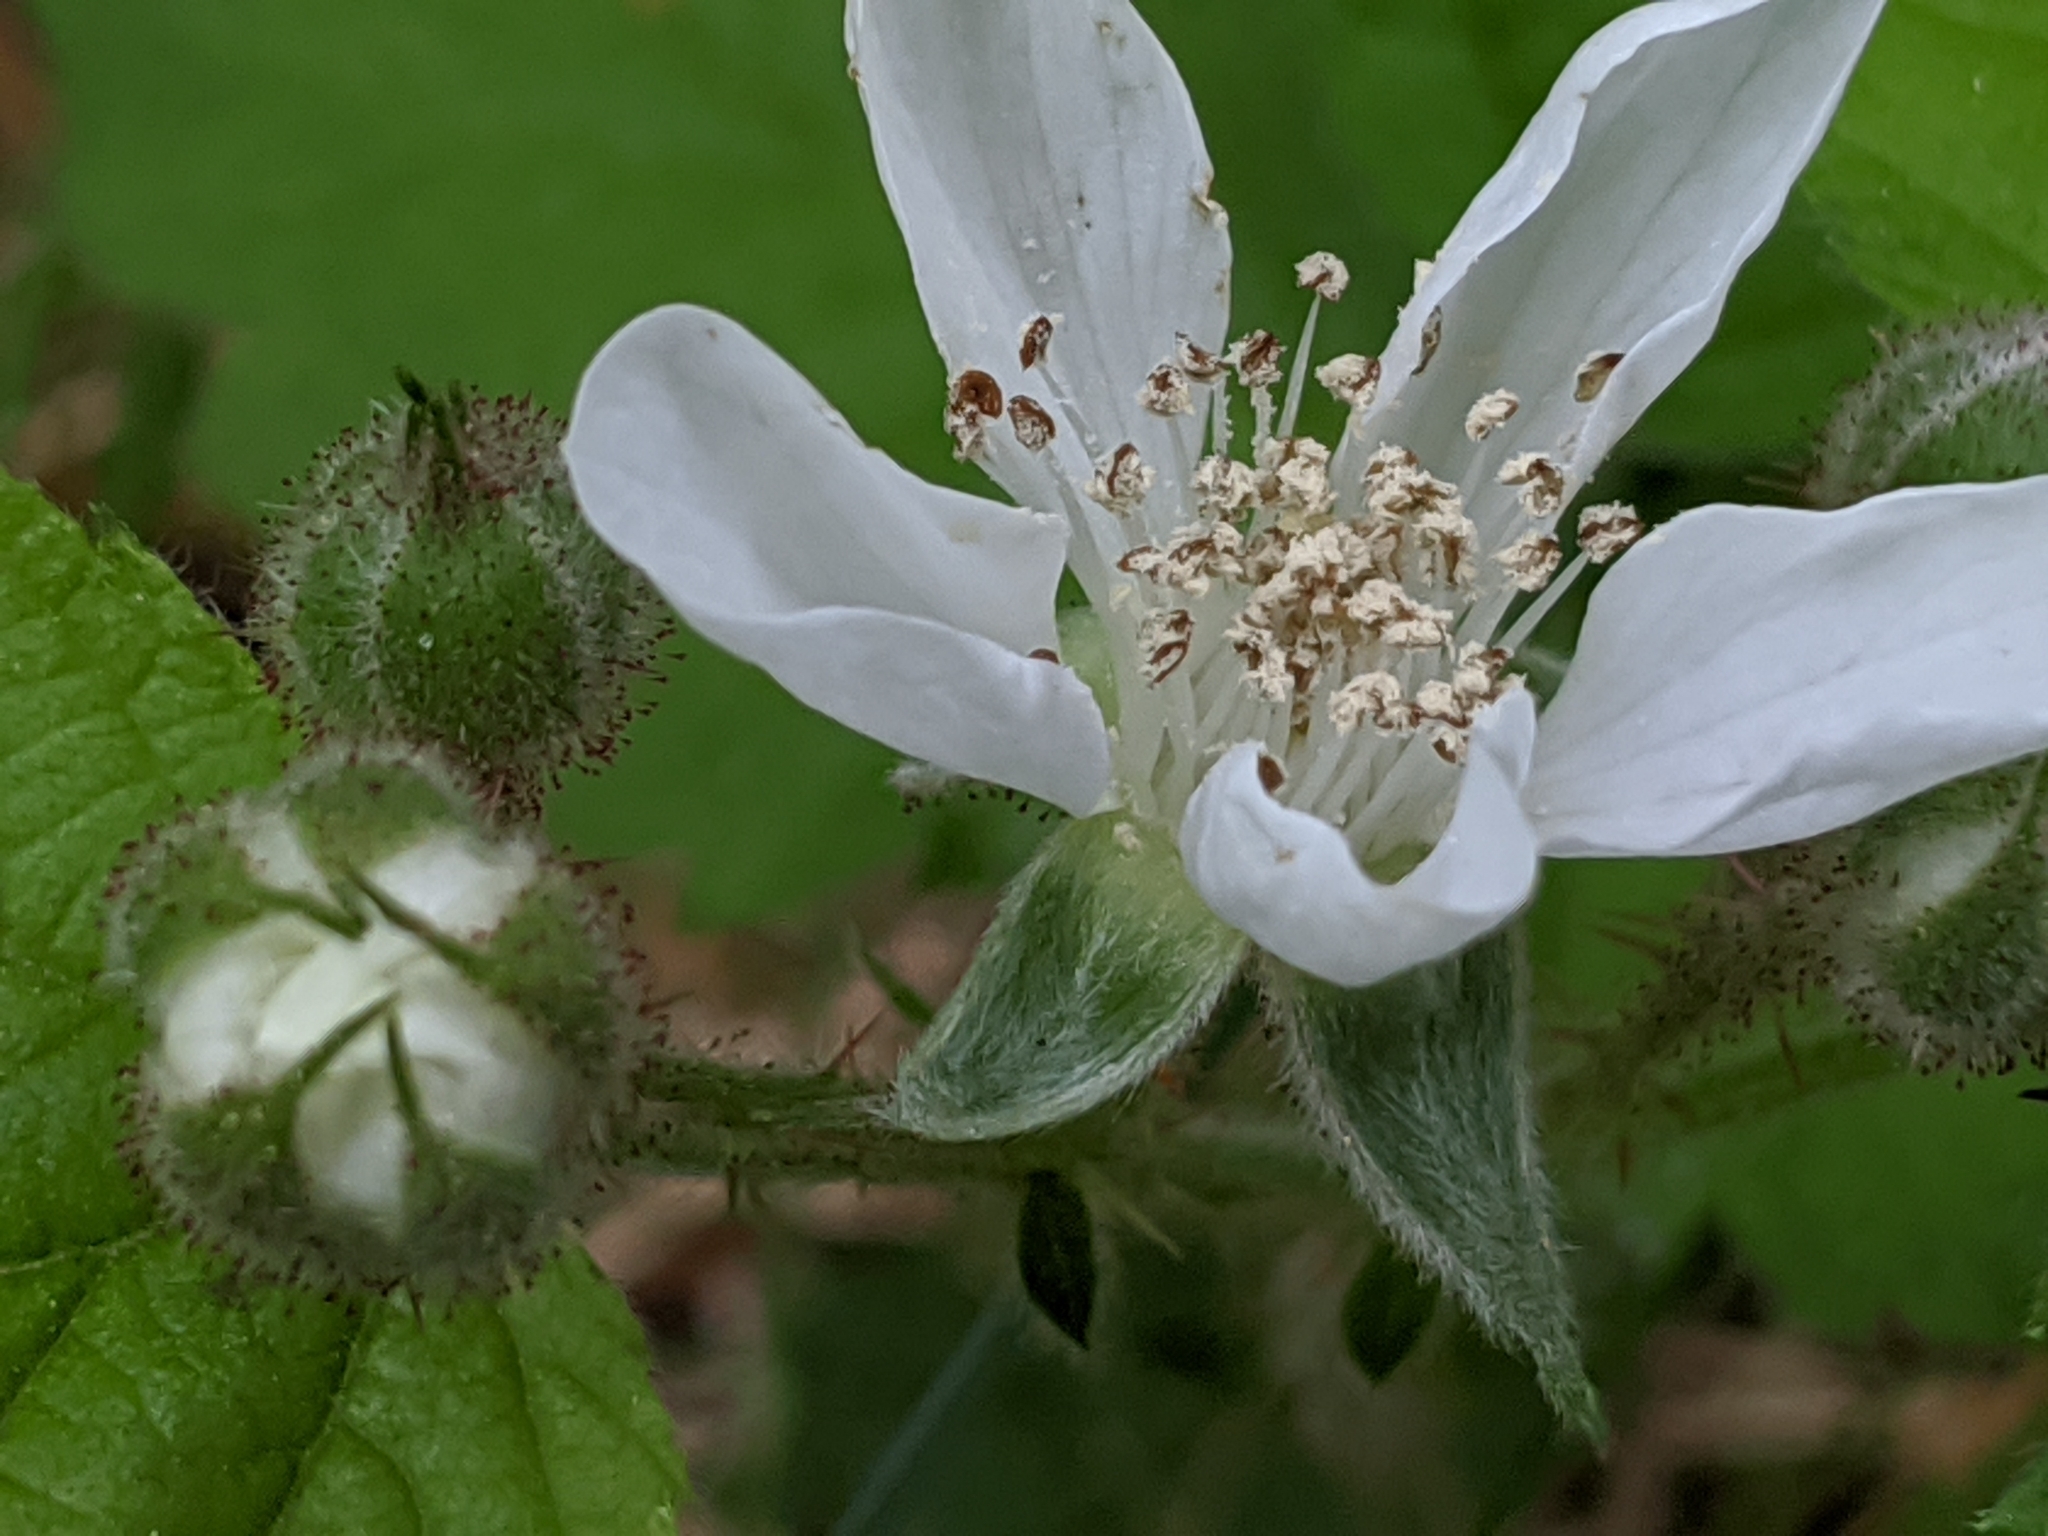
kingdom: Plantae
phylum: Tracheophyta
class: Magnoliopsida
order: Rosales
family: Rosaceae
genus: Rubus
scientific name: Rubus ursinus
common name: Pacific blackberry
